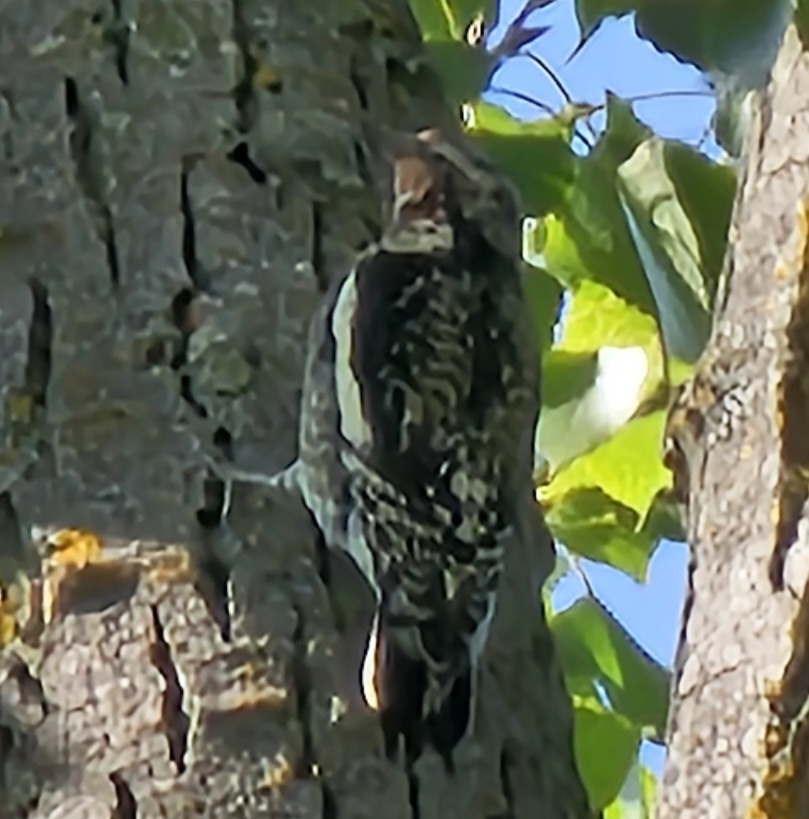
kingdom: Animalia
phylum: Chordata
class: Aves
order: Piciformes
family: Picidae
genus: Sphyrapicus
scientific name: Sphyrapicus varius
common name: Yellow-bellied sapsucker
